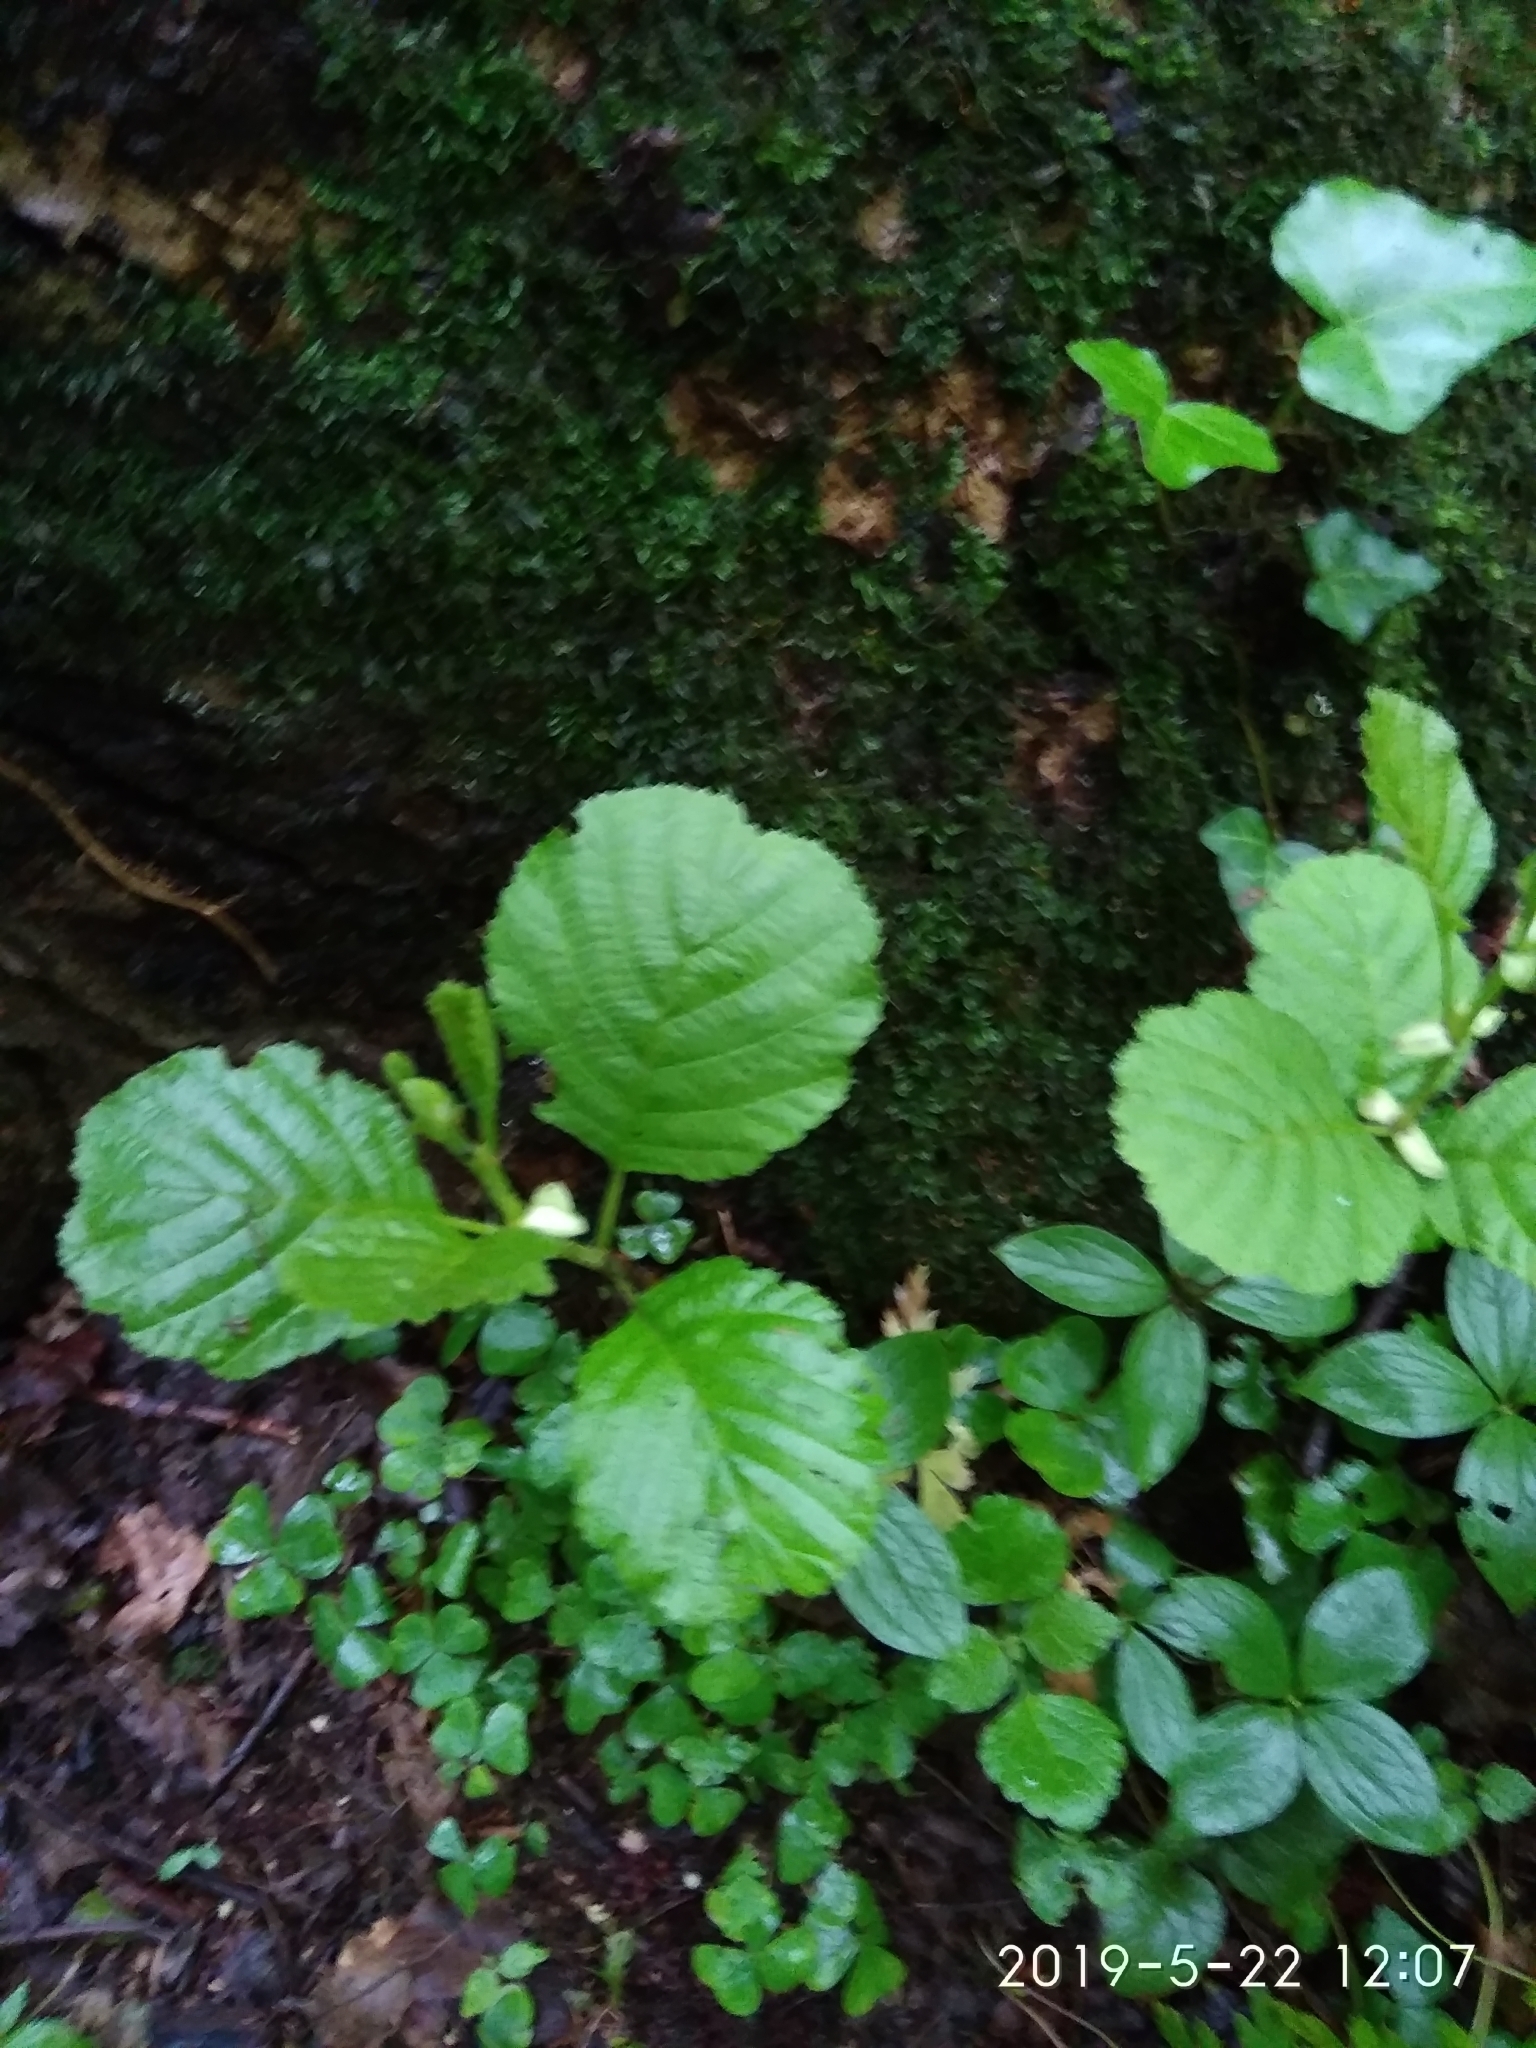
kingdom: Plantae
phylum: Tracheophyta
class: Magnoliopsida
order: Fagales
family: Betulaceae
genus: Alnus
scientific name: Alnus glutinosa
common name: Black alder
